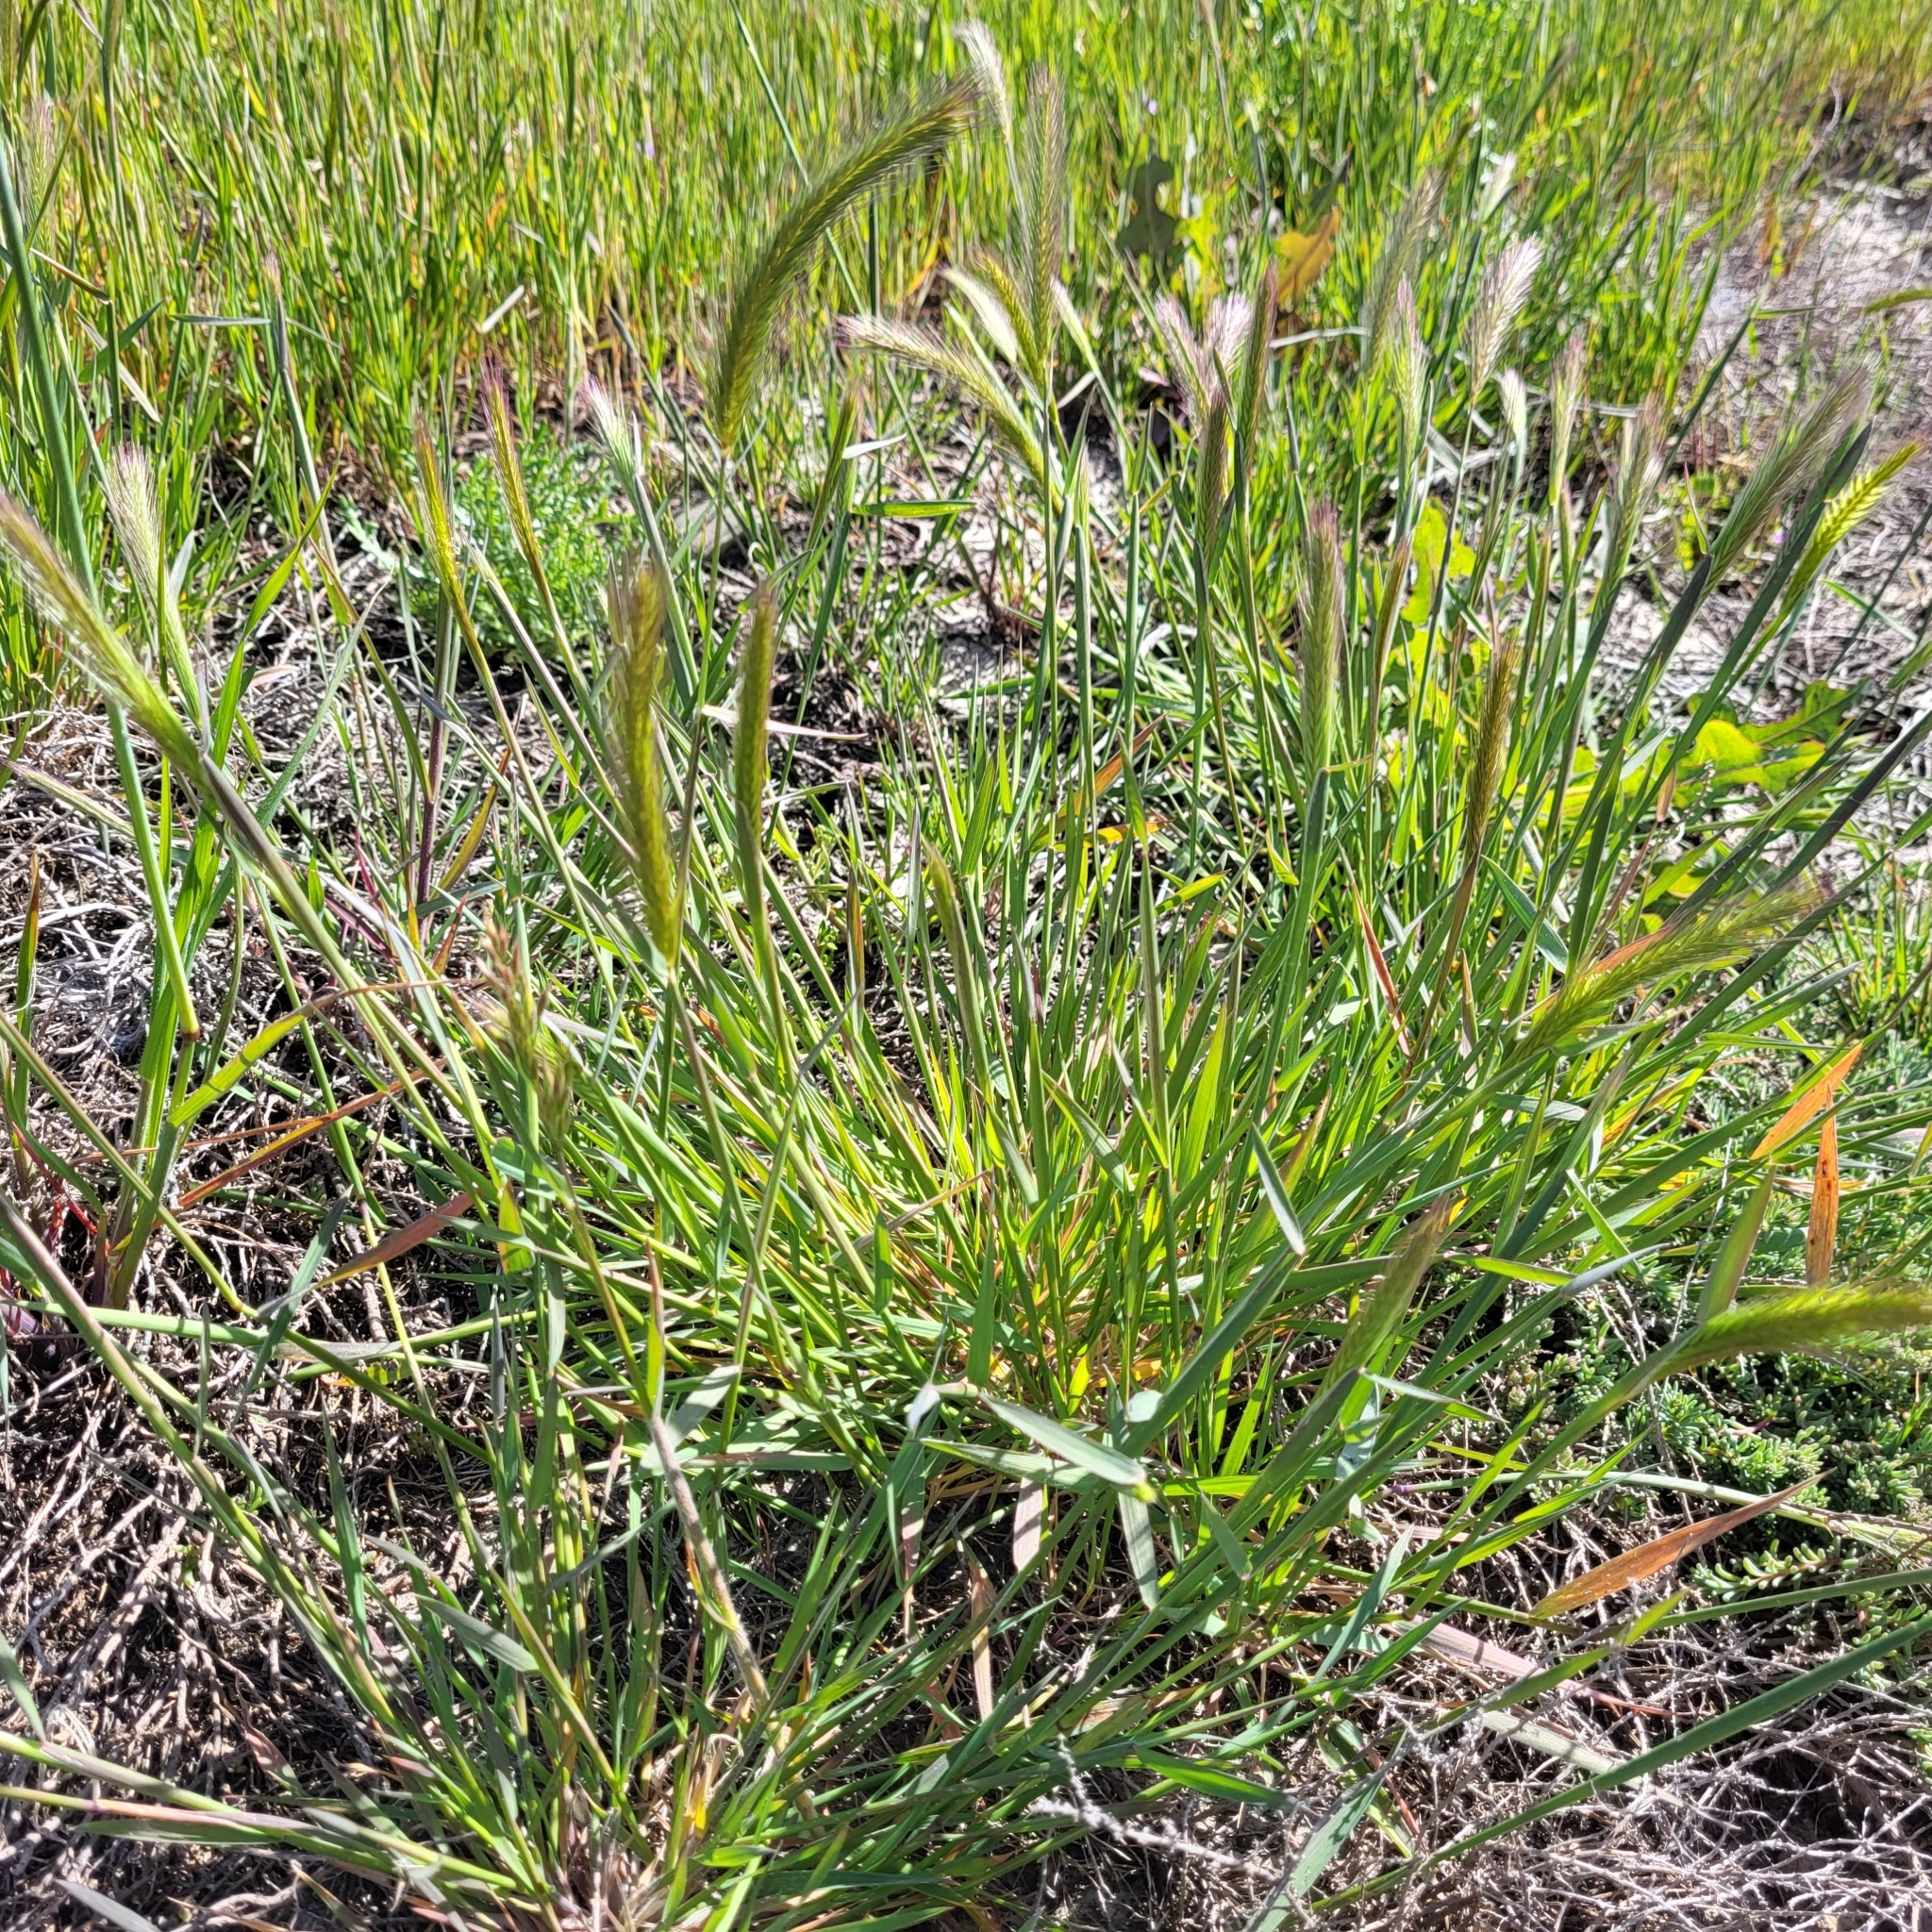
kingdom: Plantae
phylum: Tracheophyta
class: Liliopsida
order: Poales
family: Poaceae
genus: Hordeum
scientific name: Hordeum brachyantherum
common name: Meadow barley
